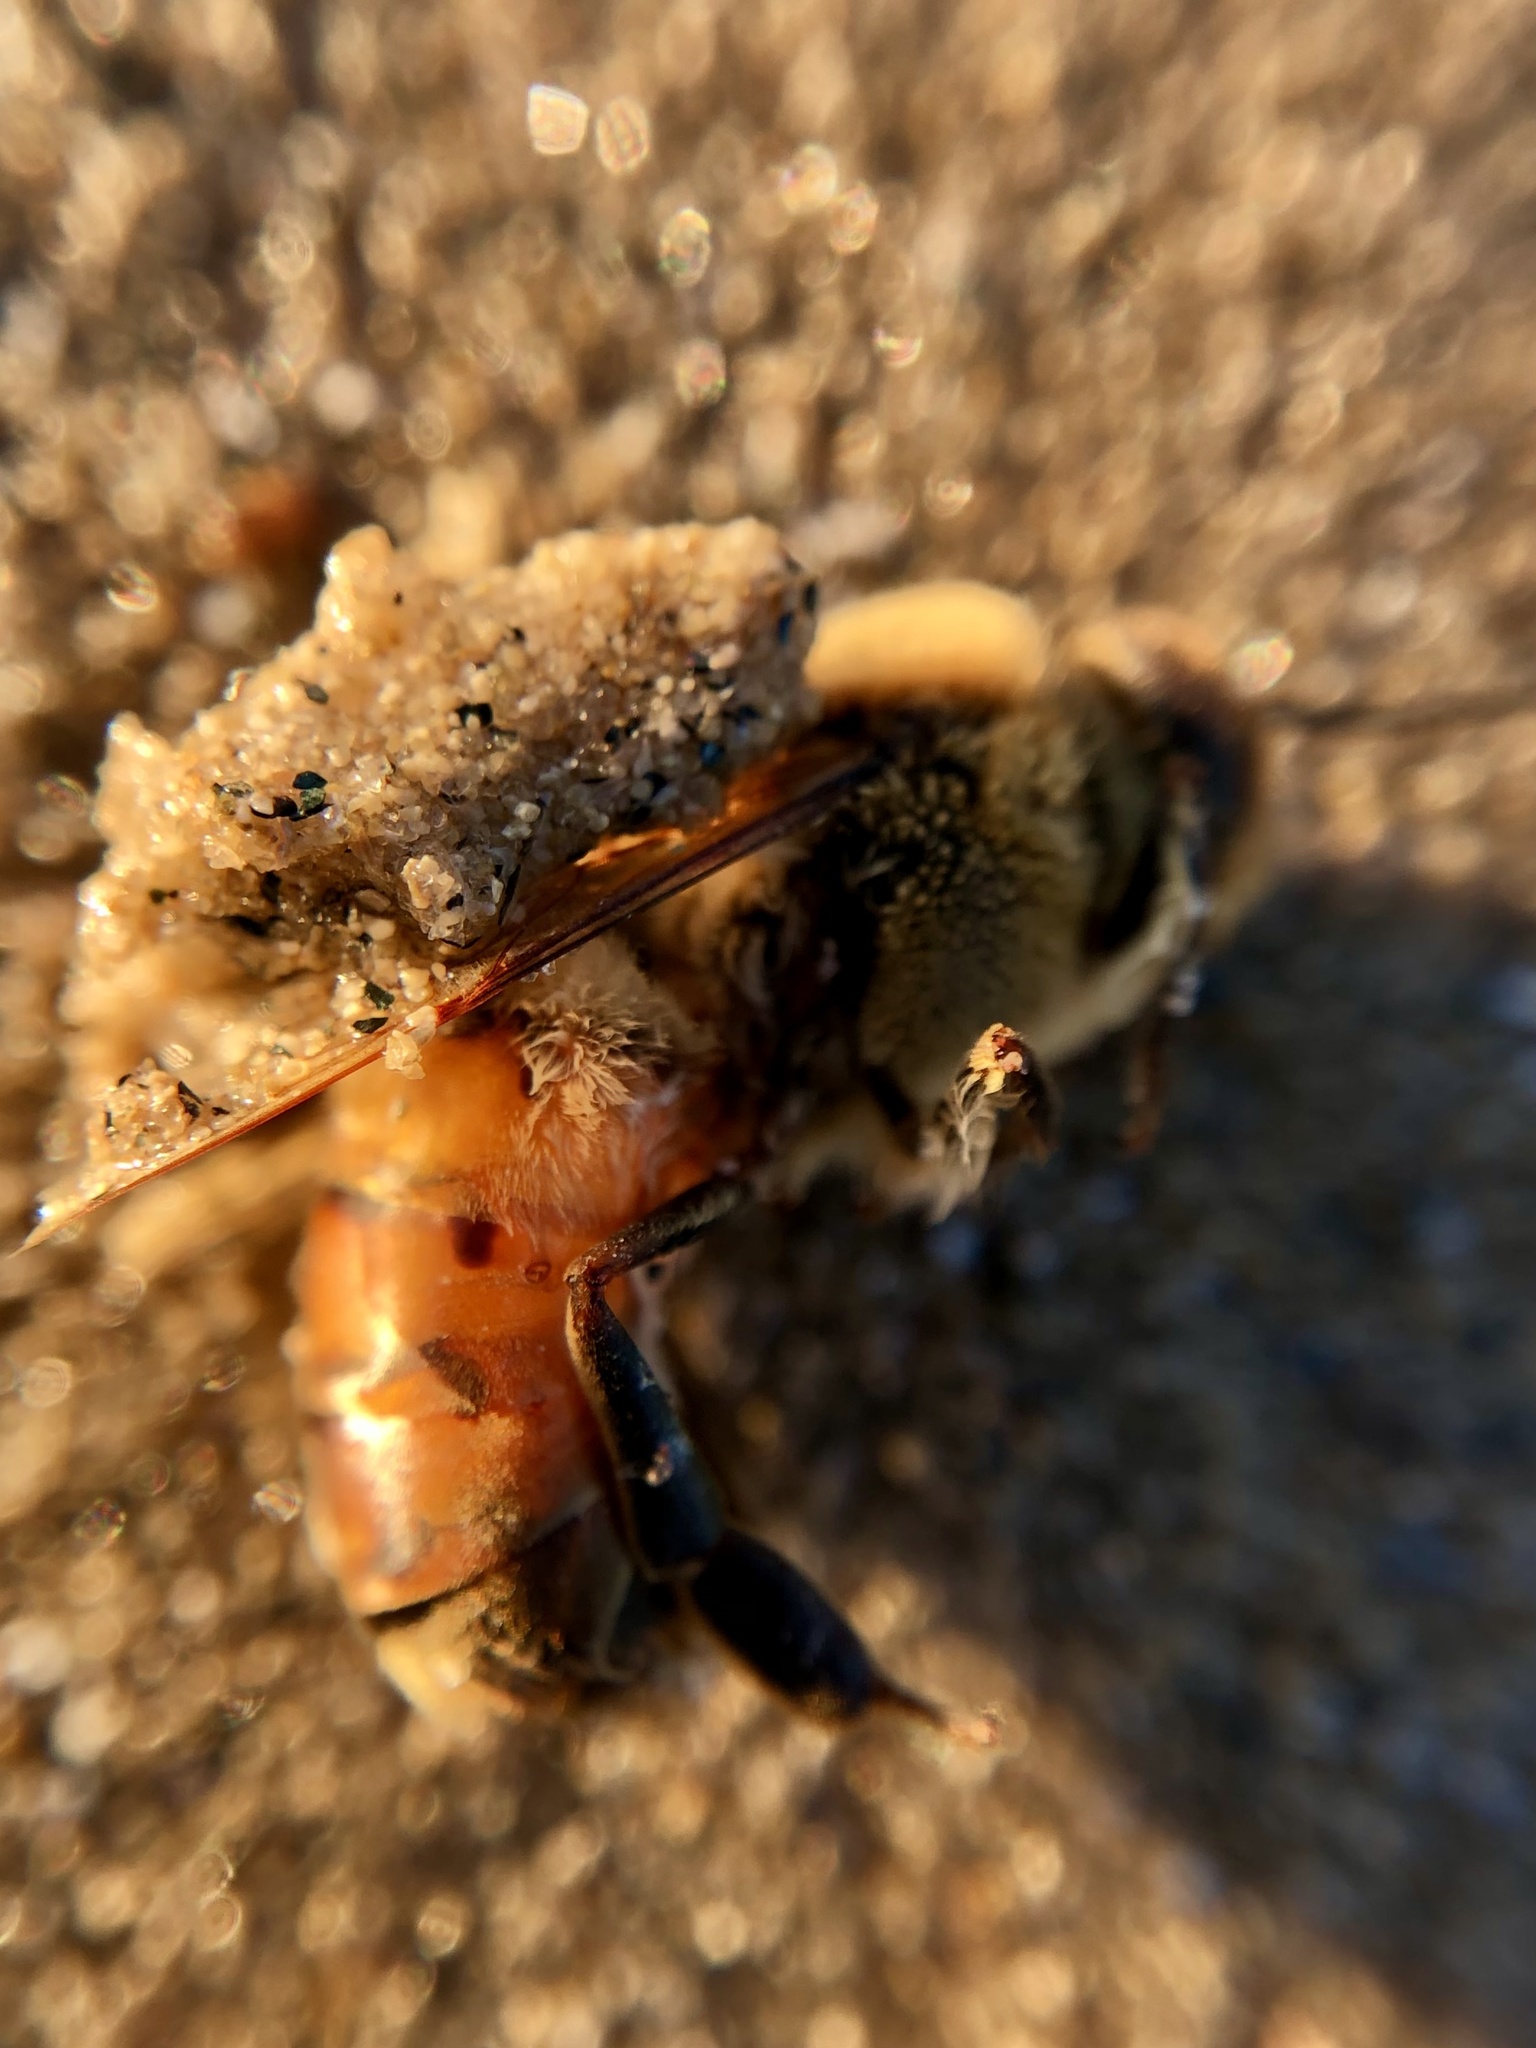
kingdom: Animalia
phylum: Arthropoda
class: Insecta
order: Hymenoptera
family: Apidae
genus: Apis
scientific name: Apis mellifera
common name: Honey bee
